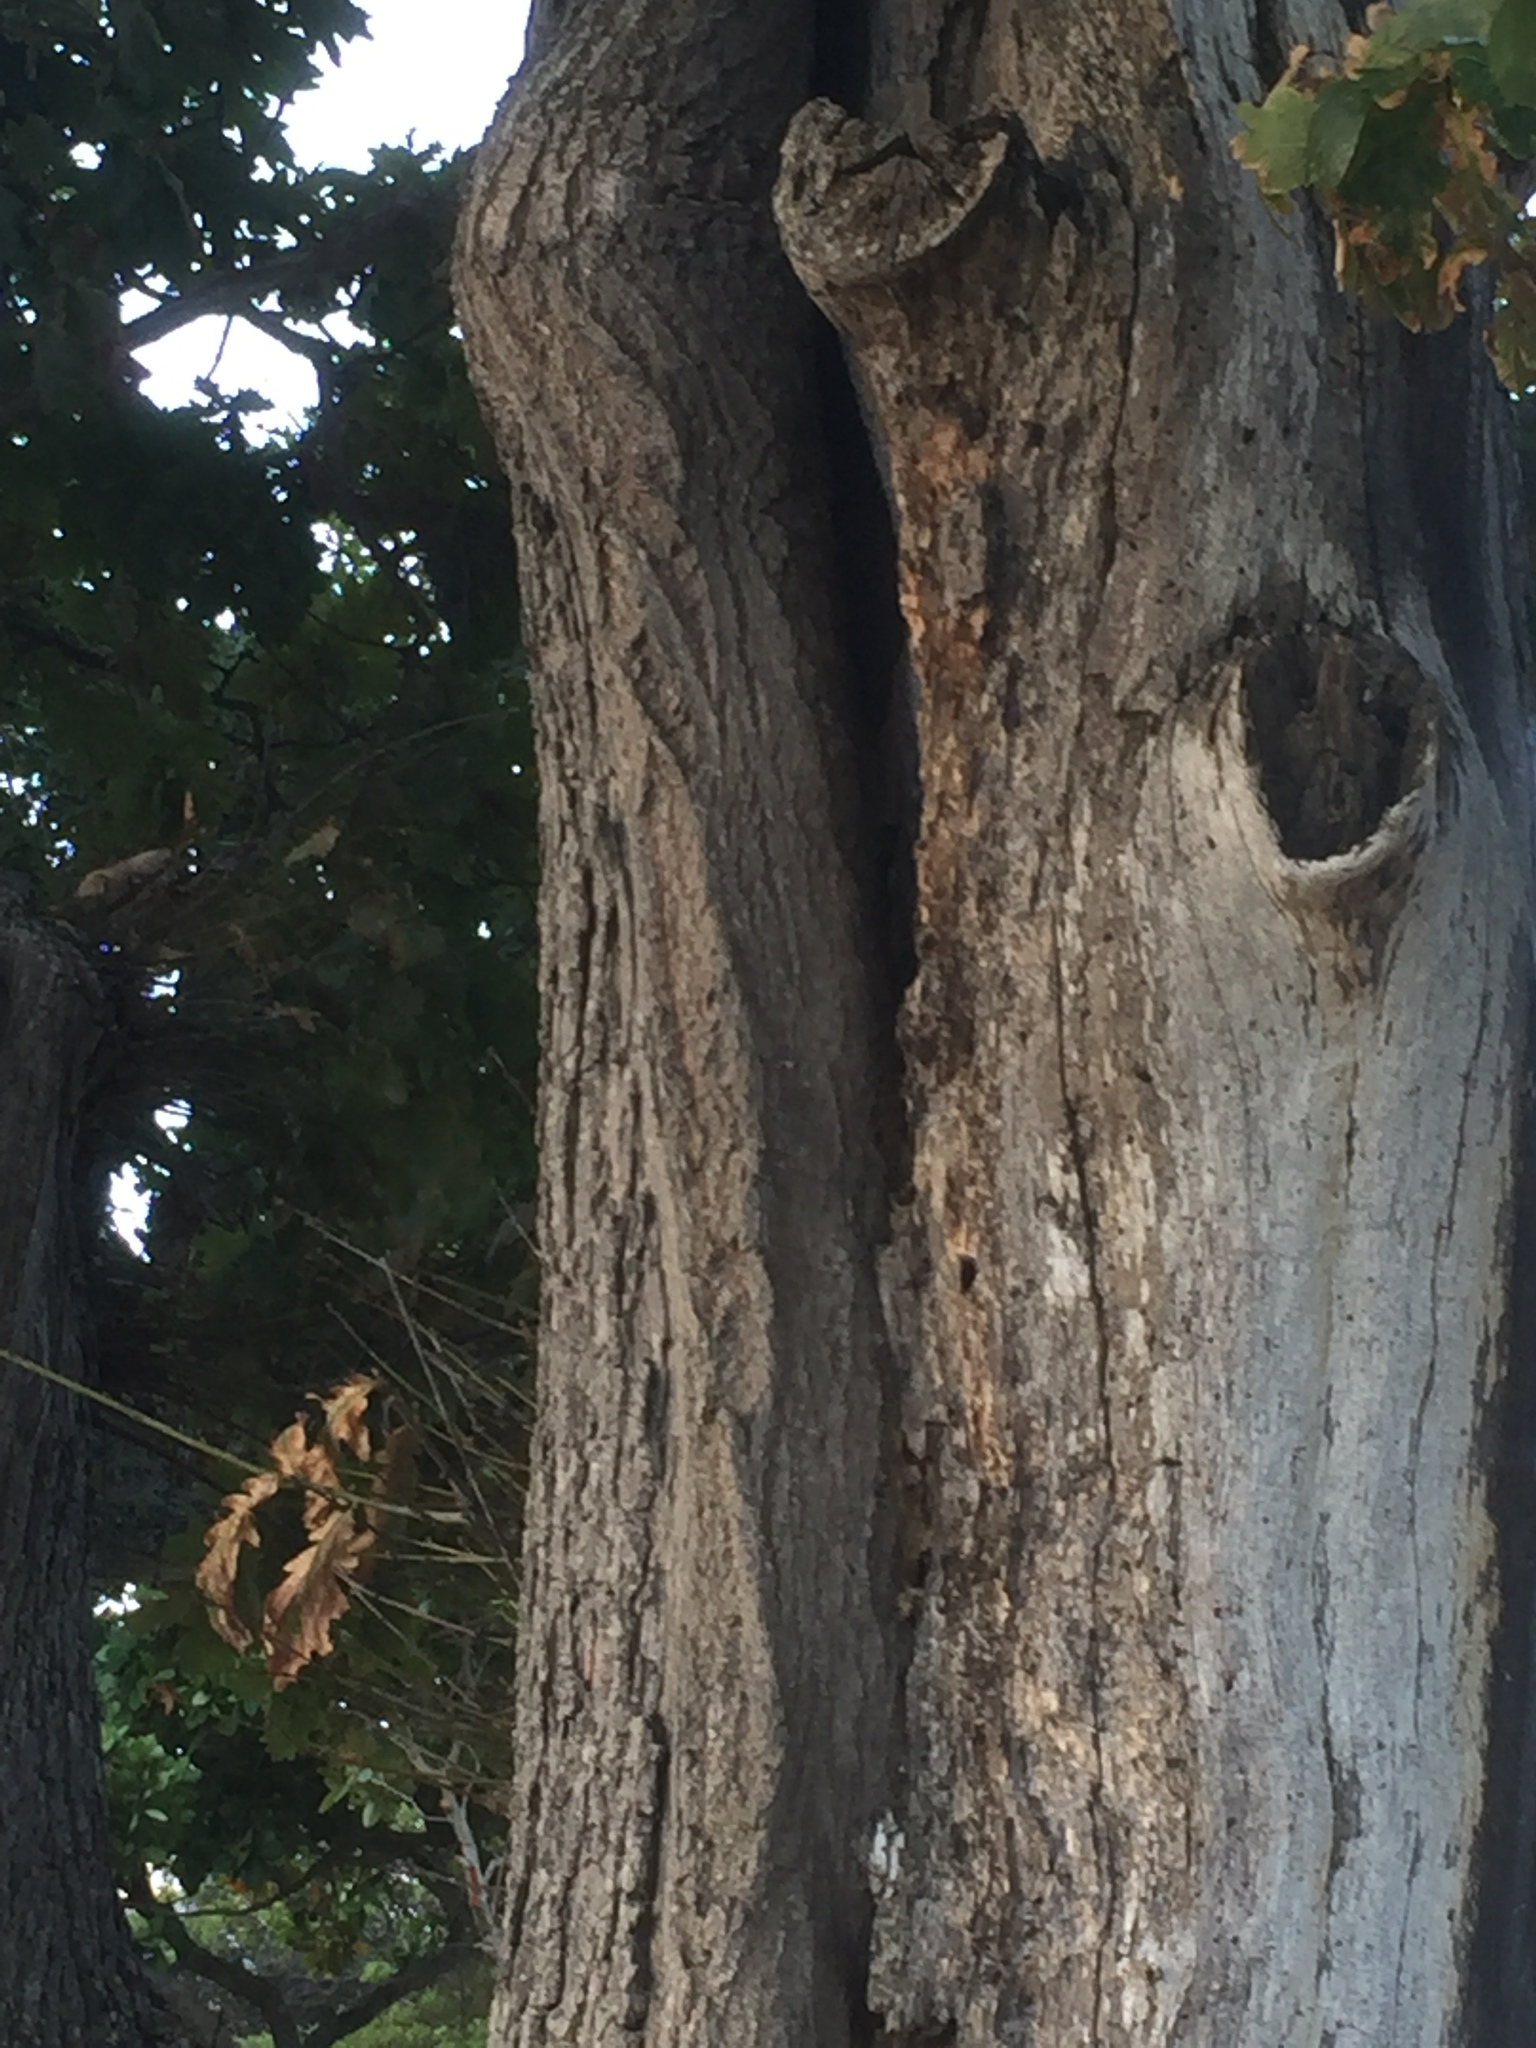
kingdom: Animalia
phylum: Arthropoda
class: Insecta
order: Hymenoptera
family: Apidae
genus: Apis
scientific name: Apis mellifera
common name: Honey bee
